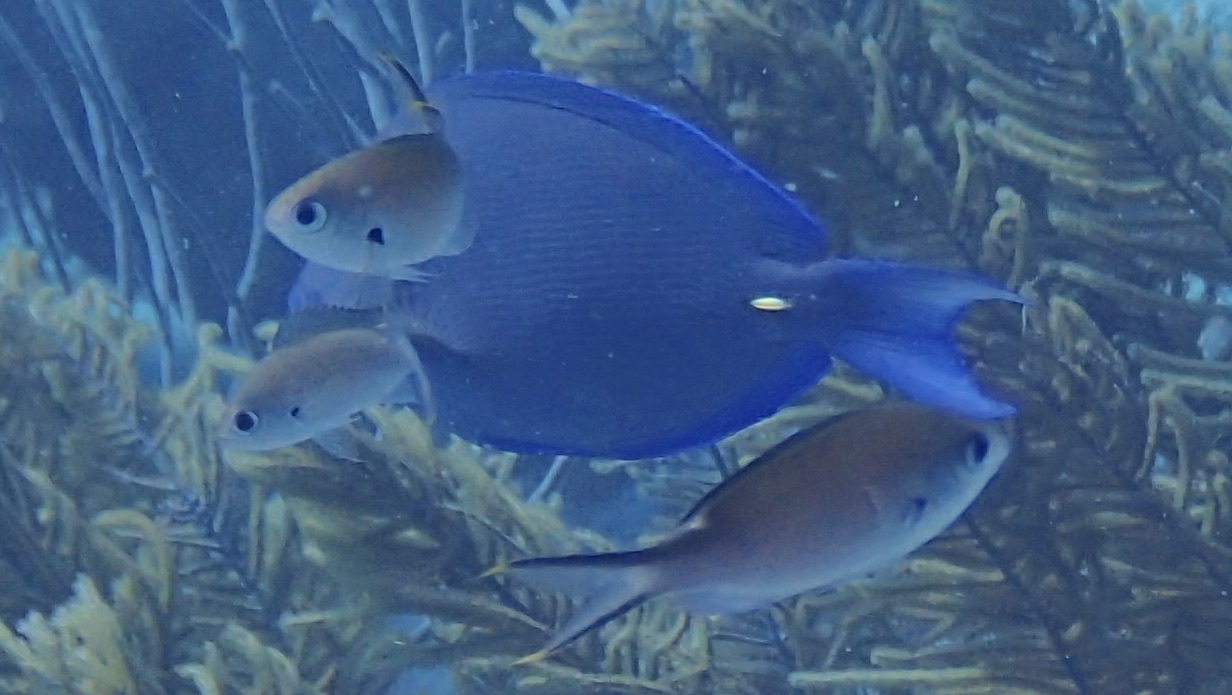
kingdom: Animalia
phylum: Chordata
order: Perciformes
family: Pomacentridae
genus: Chromis
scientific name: Chromis multilineata
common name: Brown chromis
